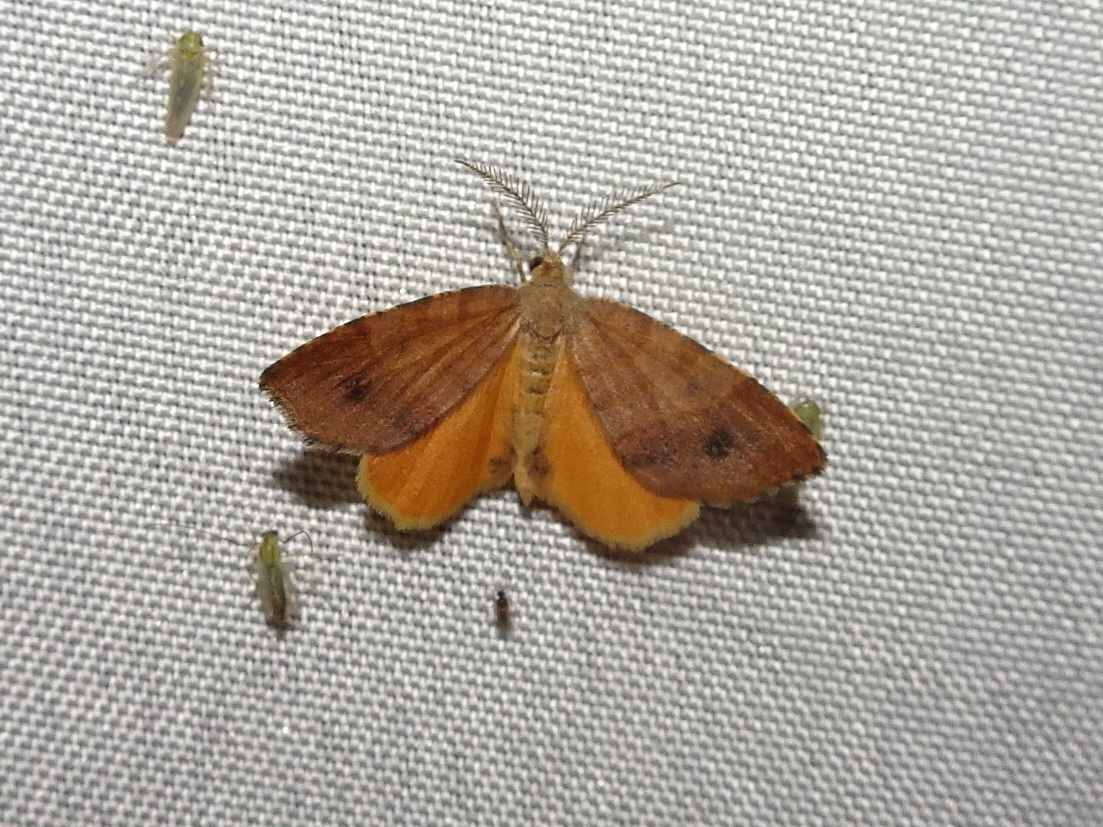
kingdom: Animalia
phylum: Arthropoda
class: Insecta
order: Lepidoptera
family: Geometridae
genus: Mellilla
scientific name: Mellilla xanthometata
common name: Orange wing moth
